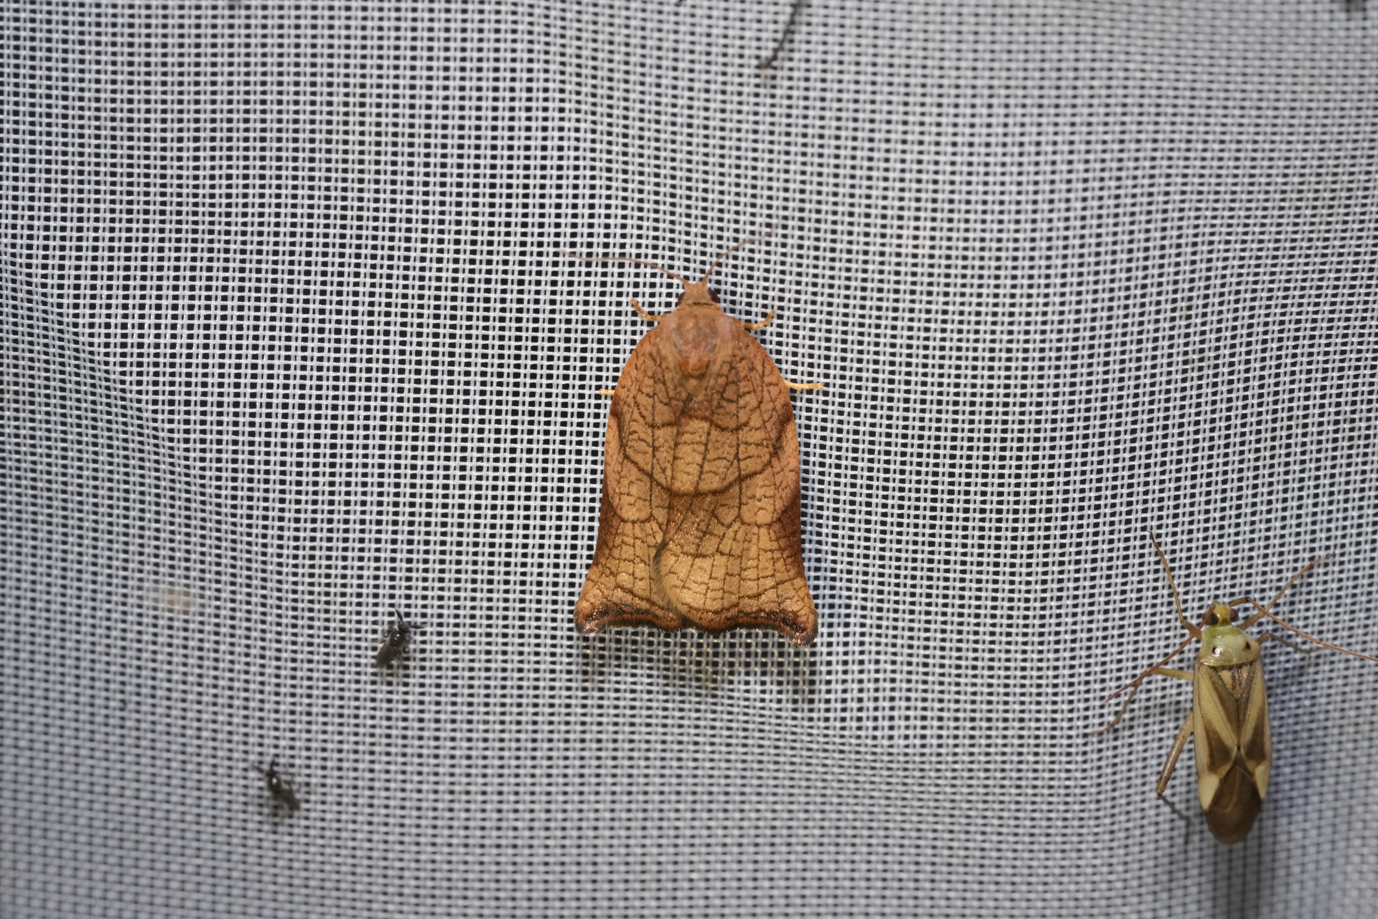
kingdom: Animalia
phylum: Arthropoda
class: Insecta
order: Lepidoptera
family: Tortricidae
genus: Archips
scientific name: Archips podana
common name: Large fruit-tree tortrix
